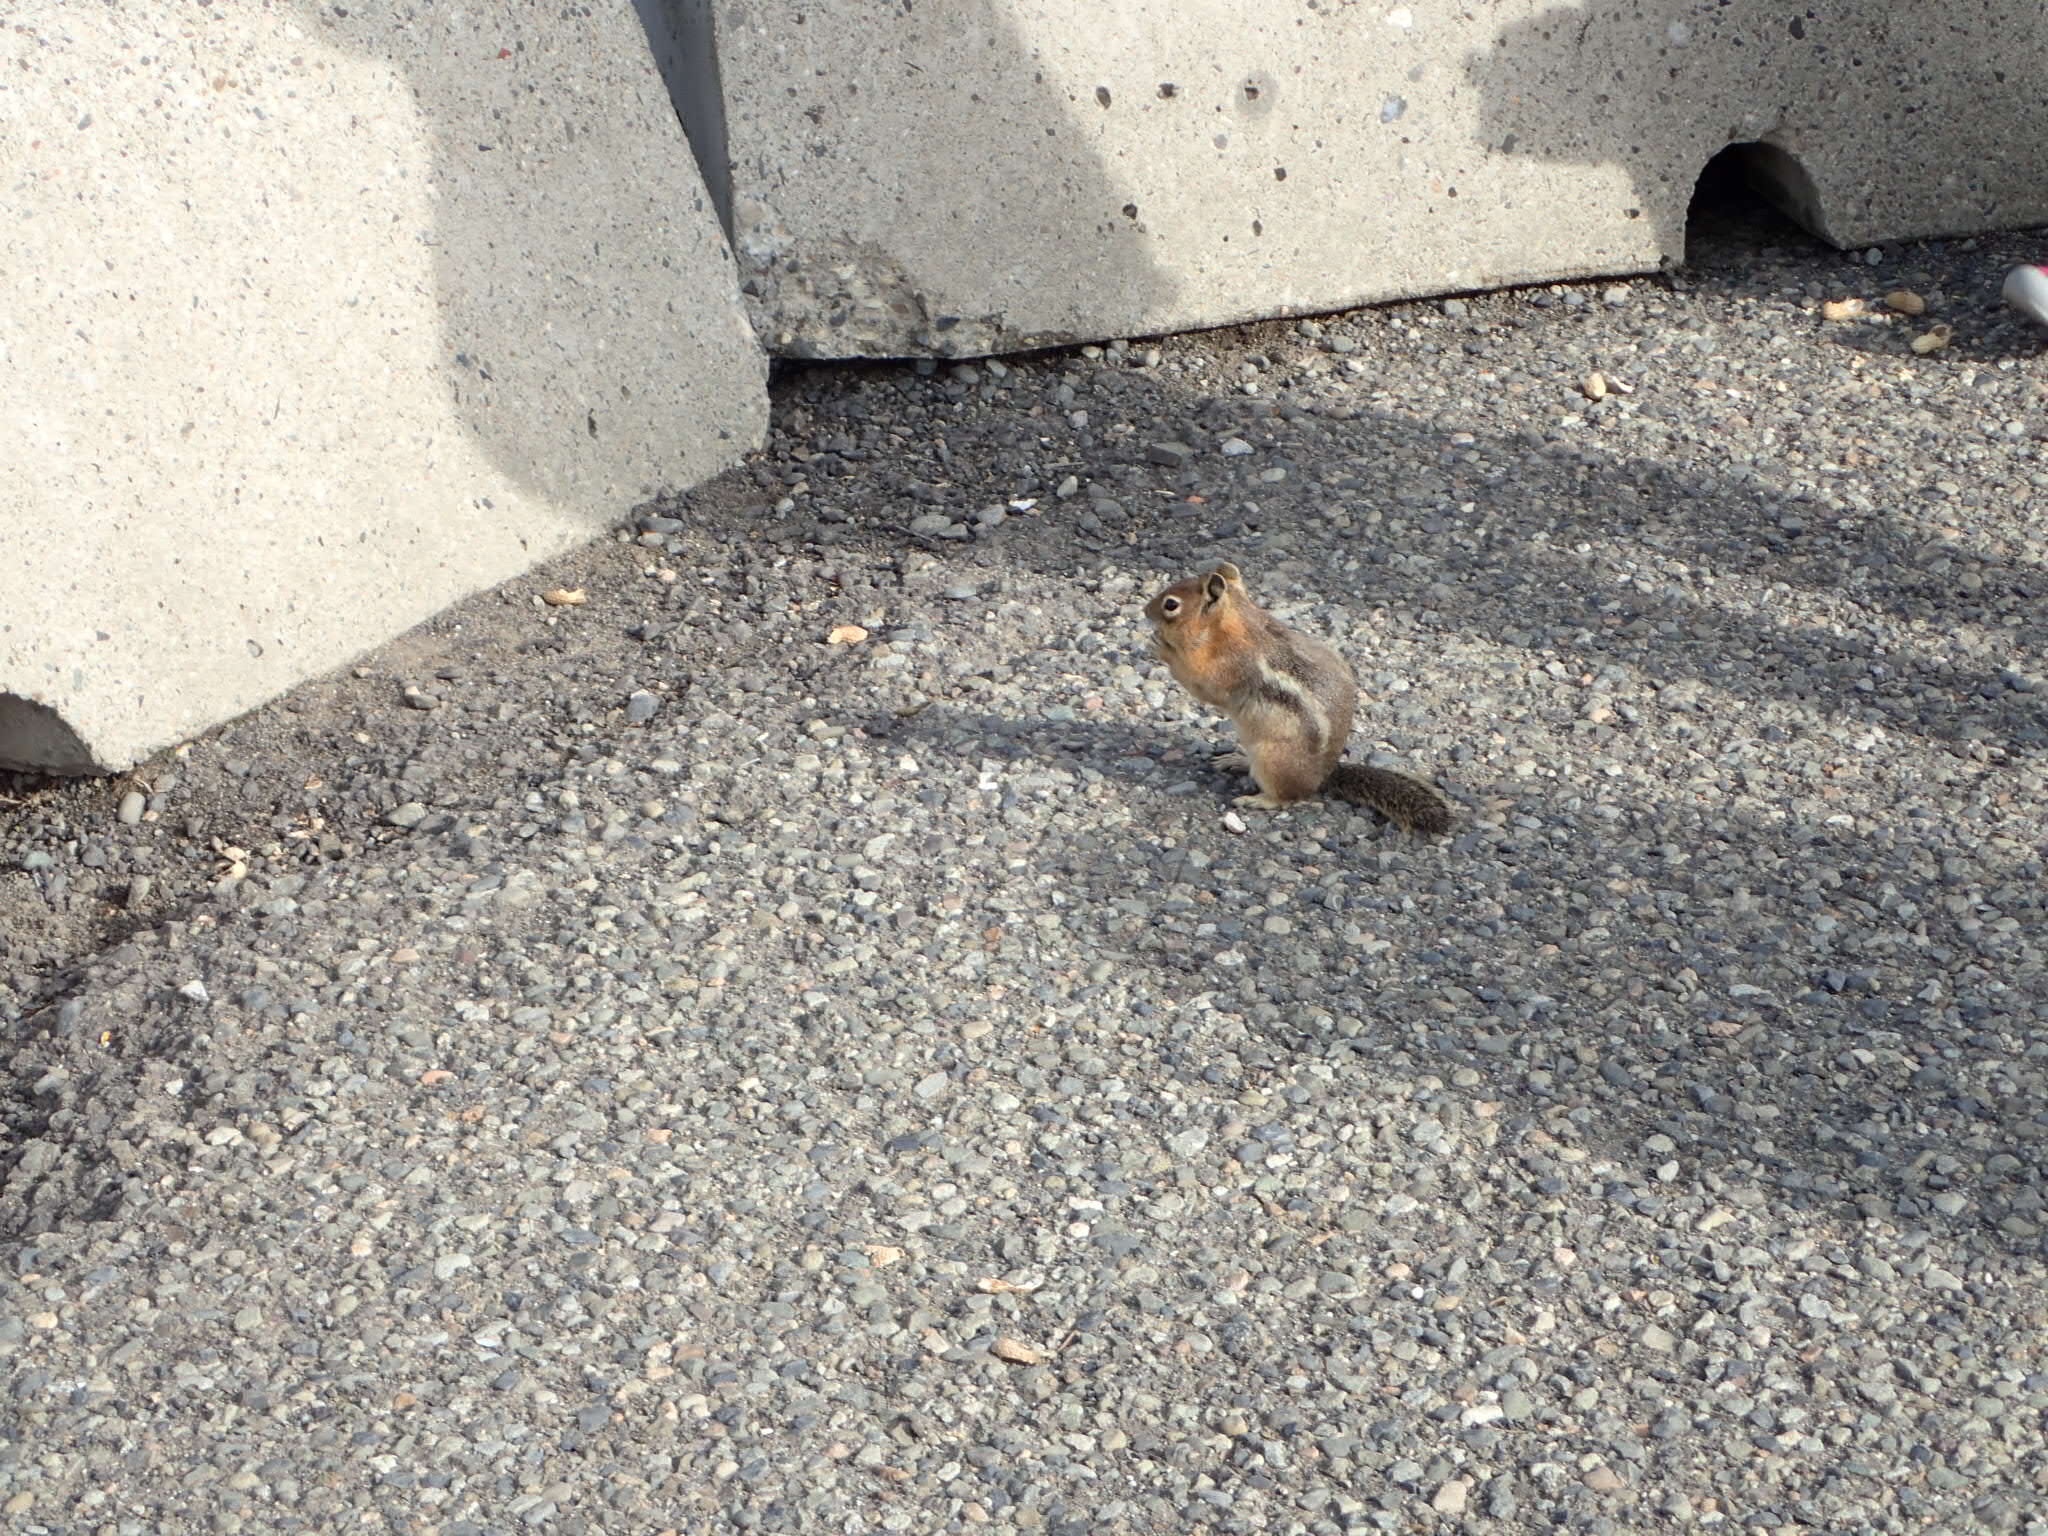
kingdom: Animalia
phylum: Chordata
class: Mammalia
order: Rodentia
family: Sciuridae
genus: Callospermophilus
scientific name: Callospermophilus saturatus
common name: Cascade golden-mantled ground squirrel
